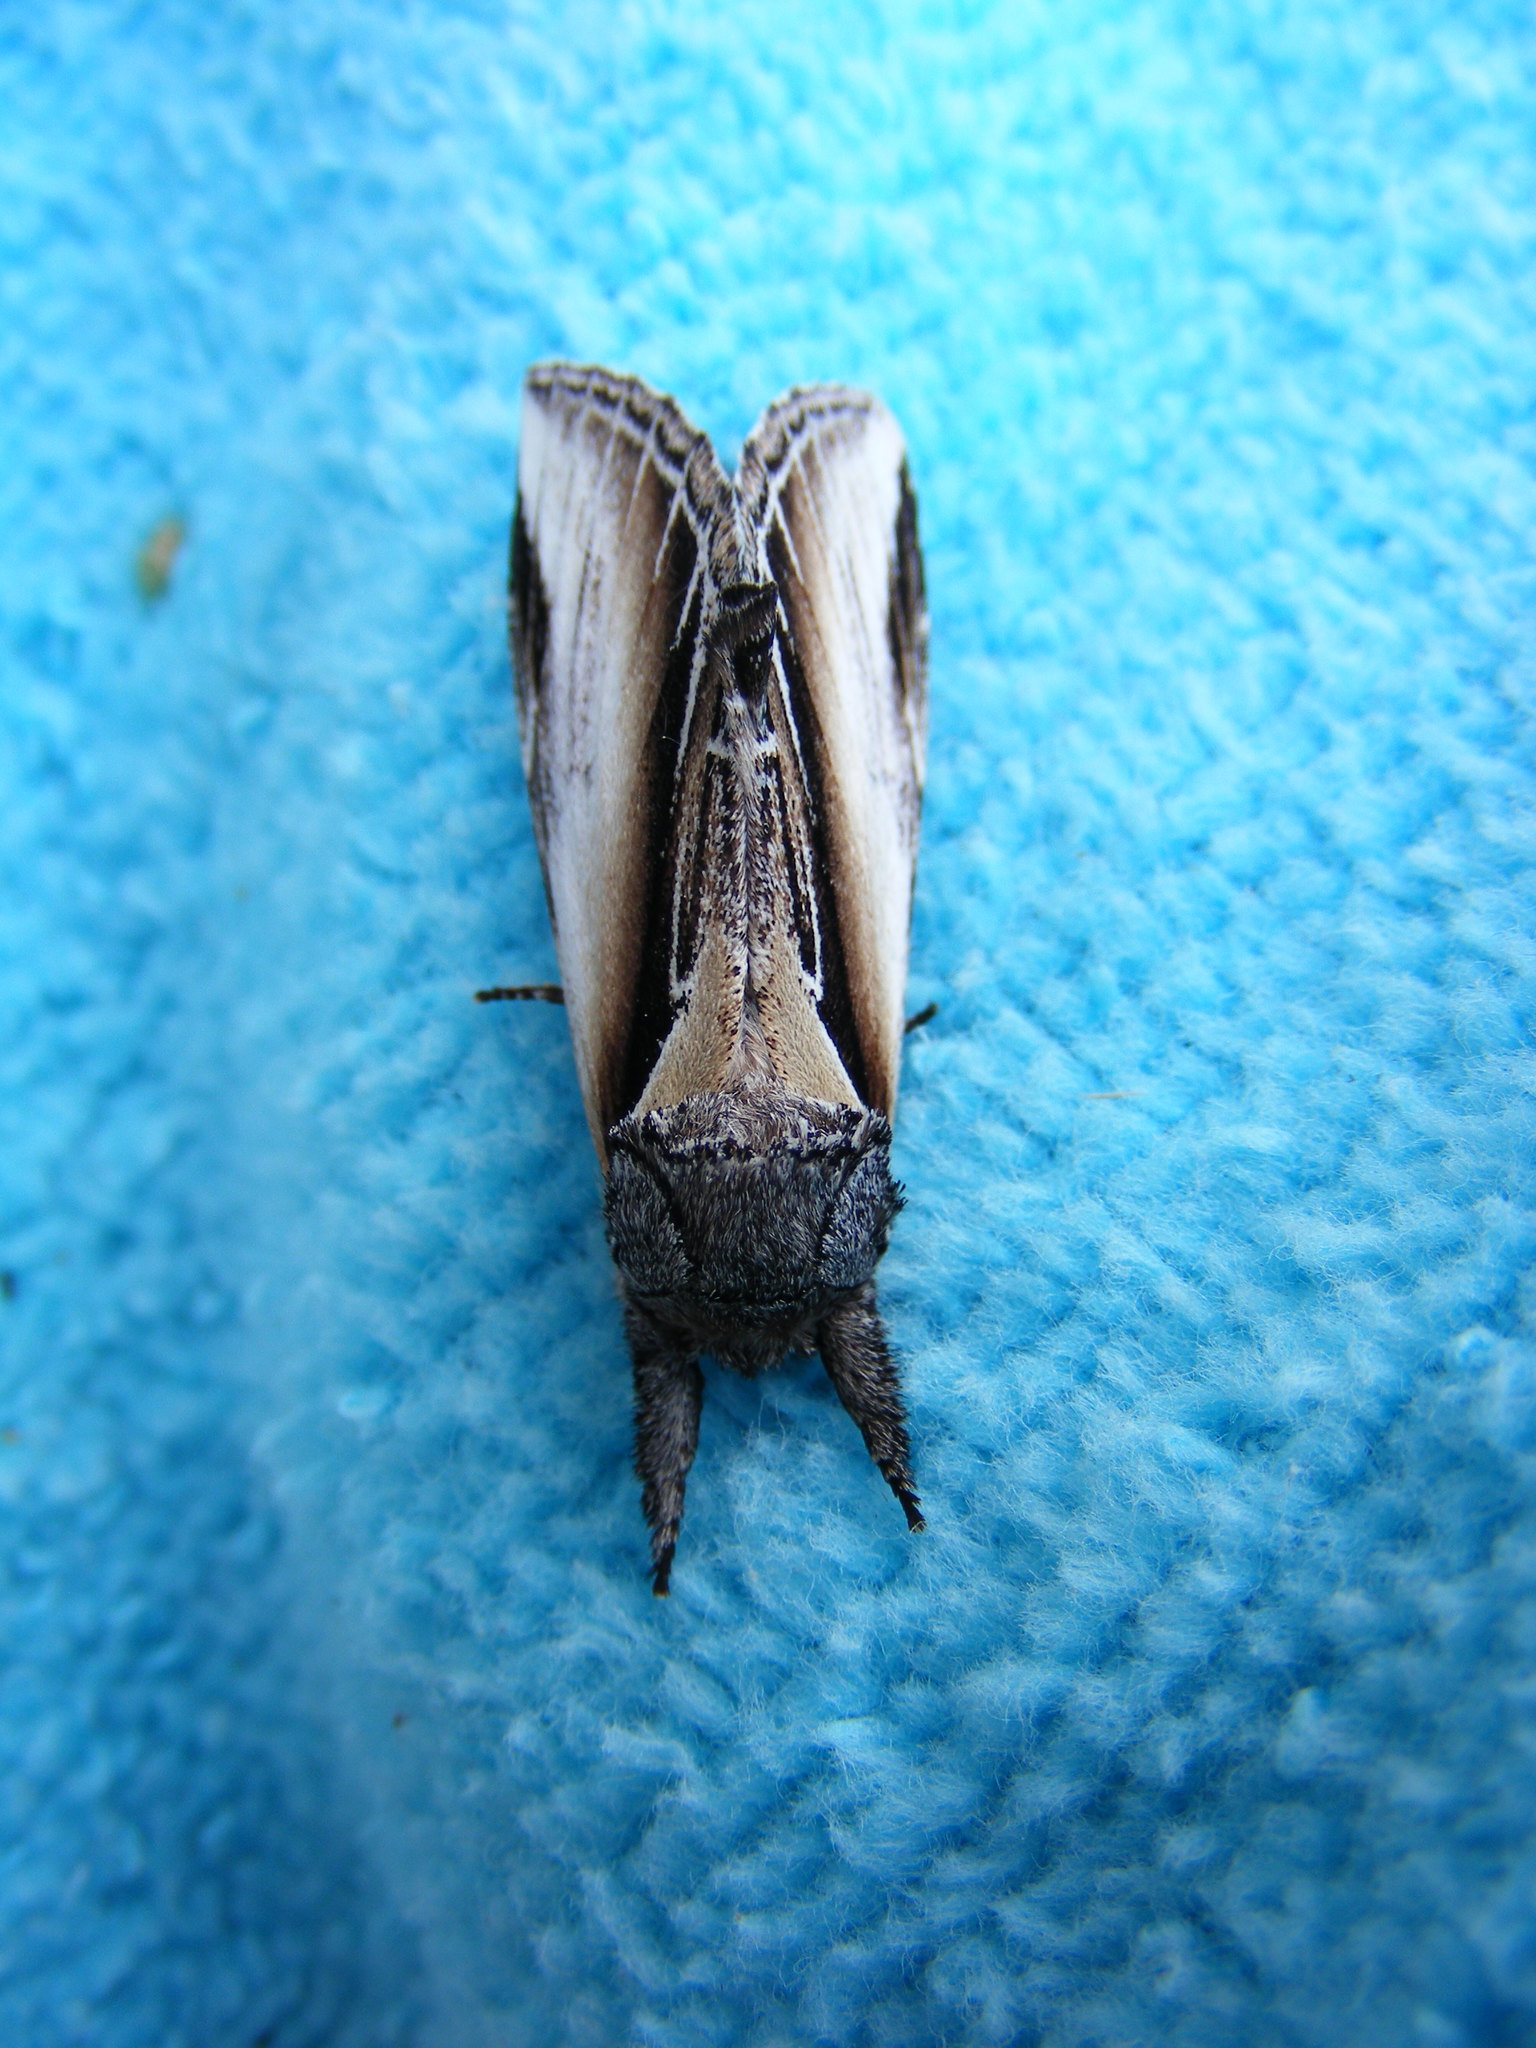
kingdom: Animalia
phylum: Arthropoda
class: Insecta
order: Lepidoptera
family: Notodontidae
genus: Pheosia
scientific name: Pheosia rimosa
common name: Black-rimmed prominent
